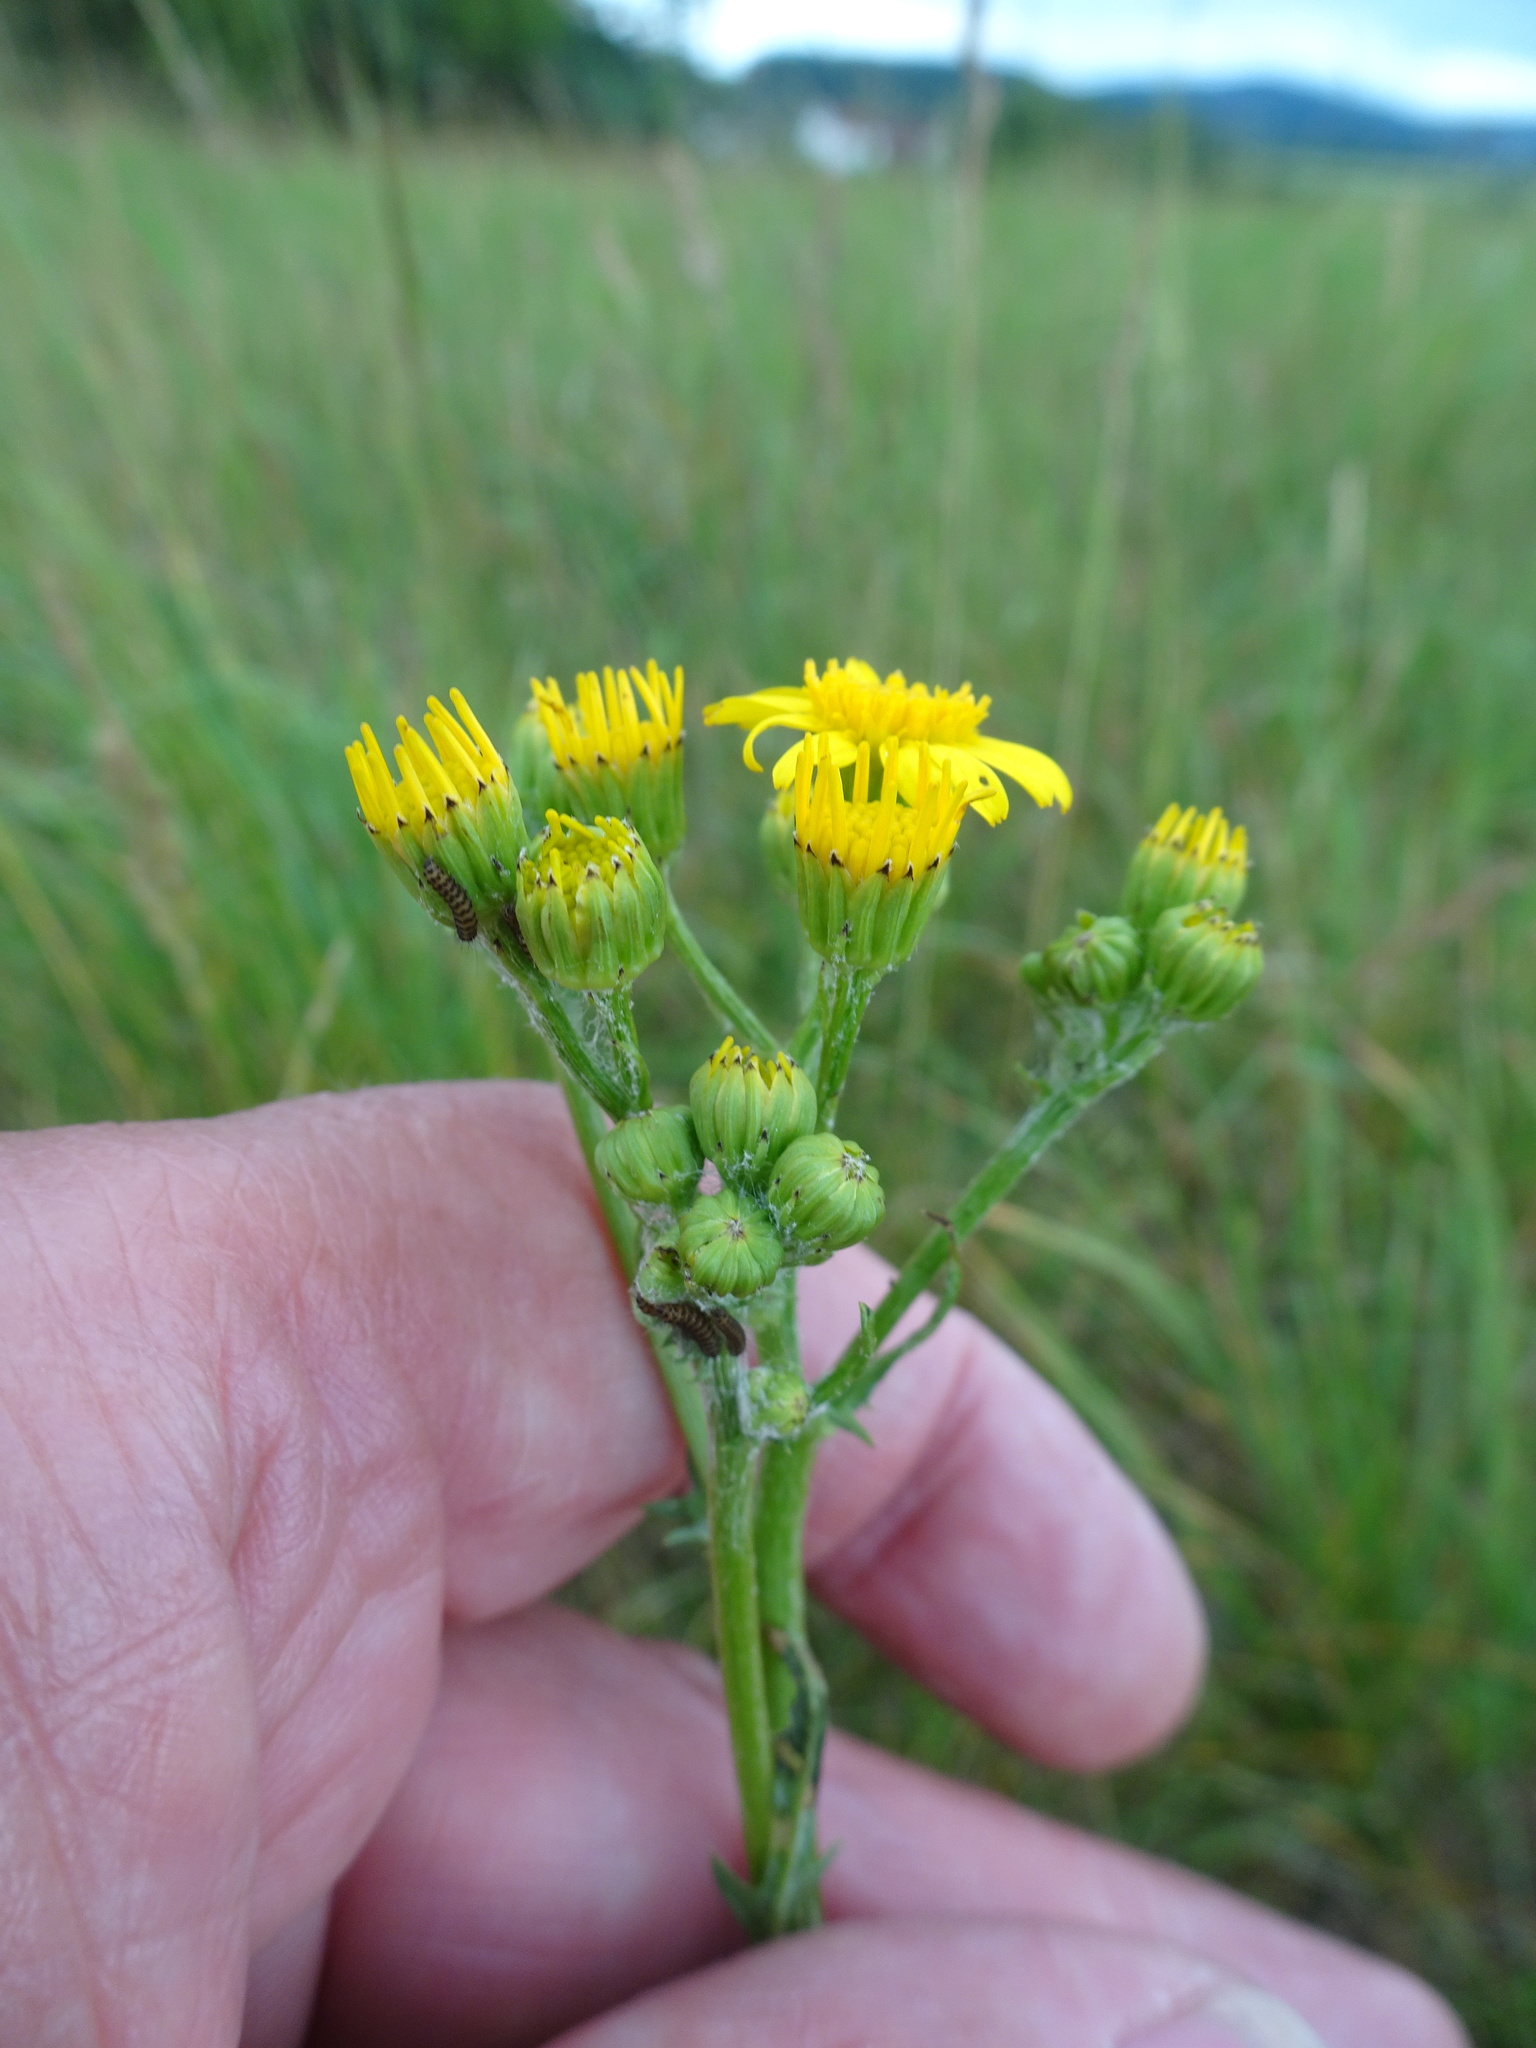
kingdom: Plantae
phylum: Tracheophyta
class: Magnoliopsida
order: Asterales
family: Asteraceae
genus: Jacobaea
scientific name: Jacobaea vulgaris
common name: Stinking willie
